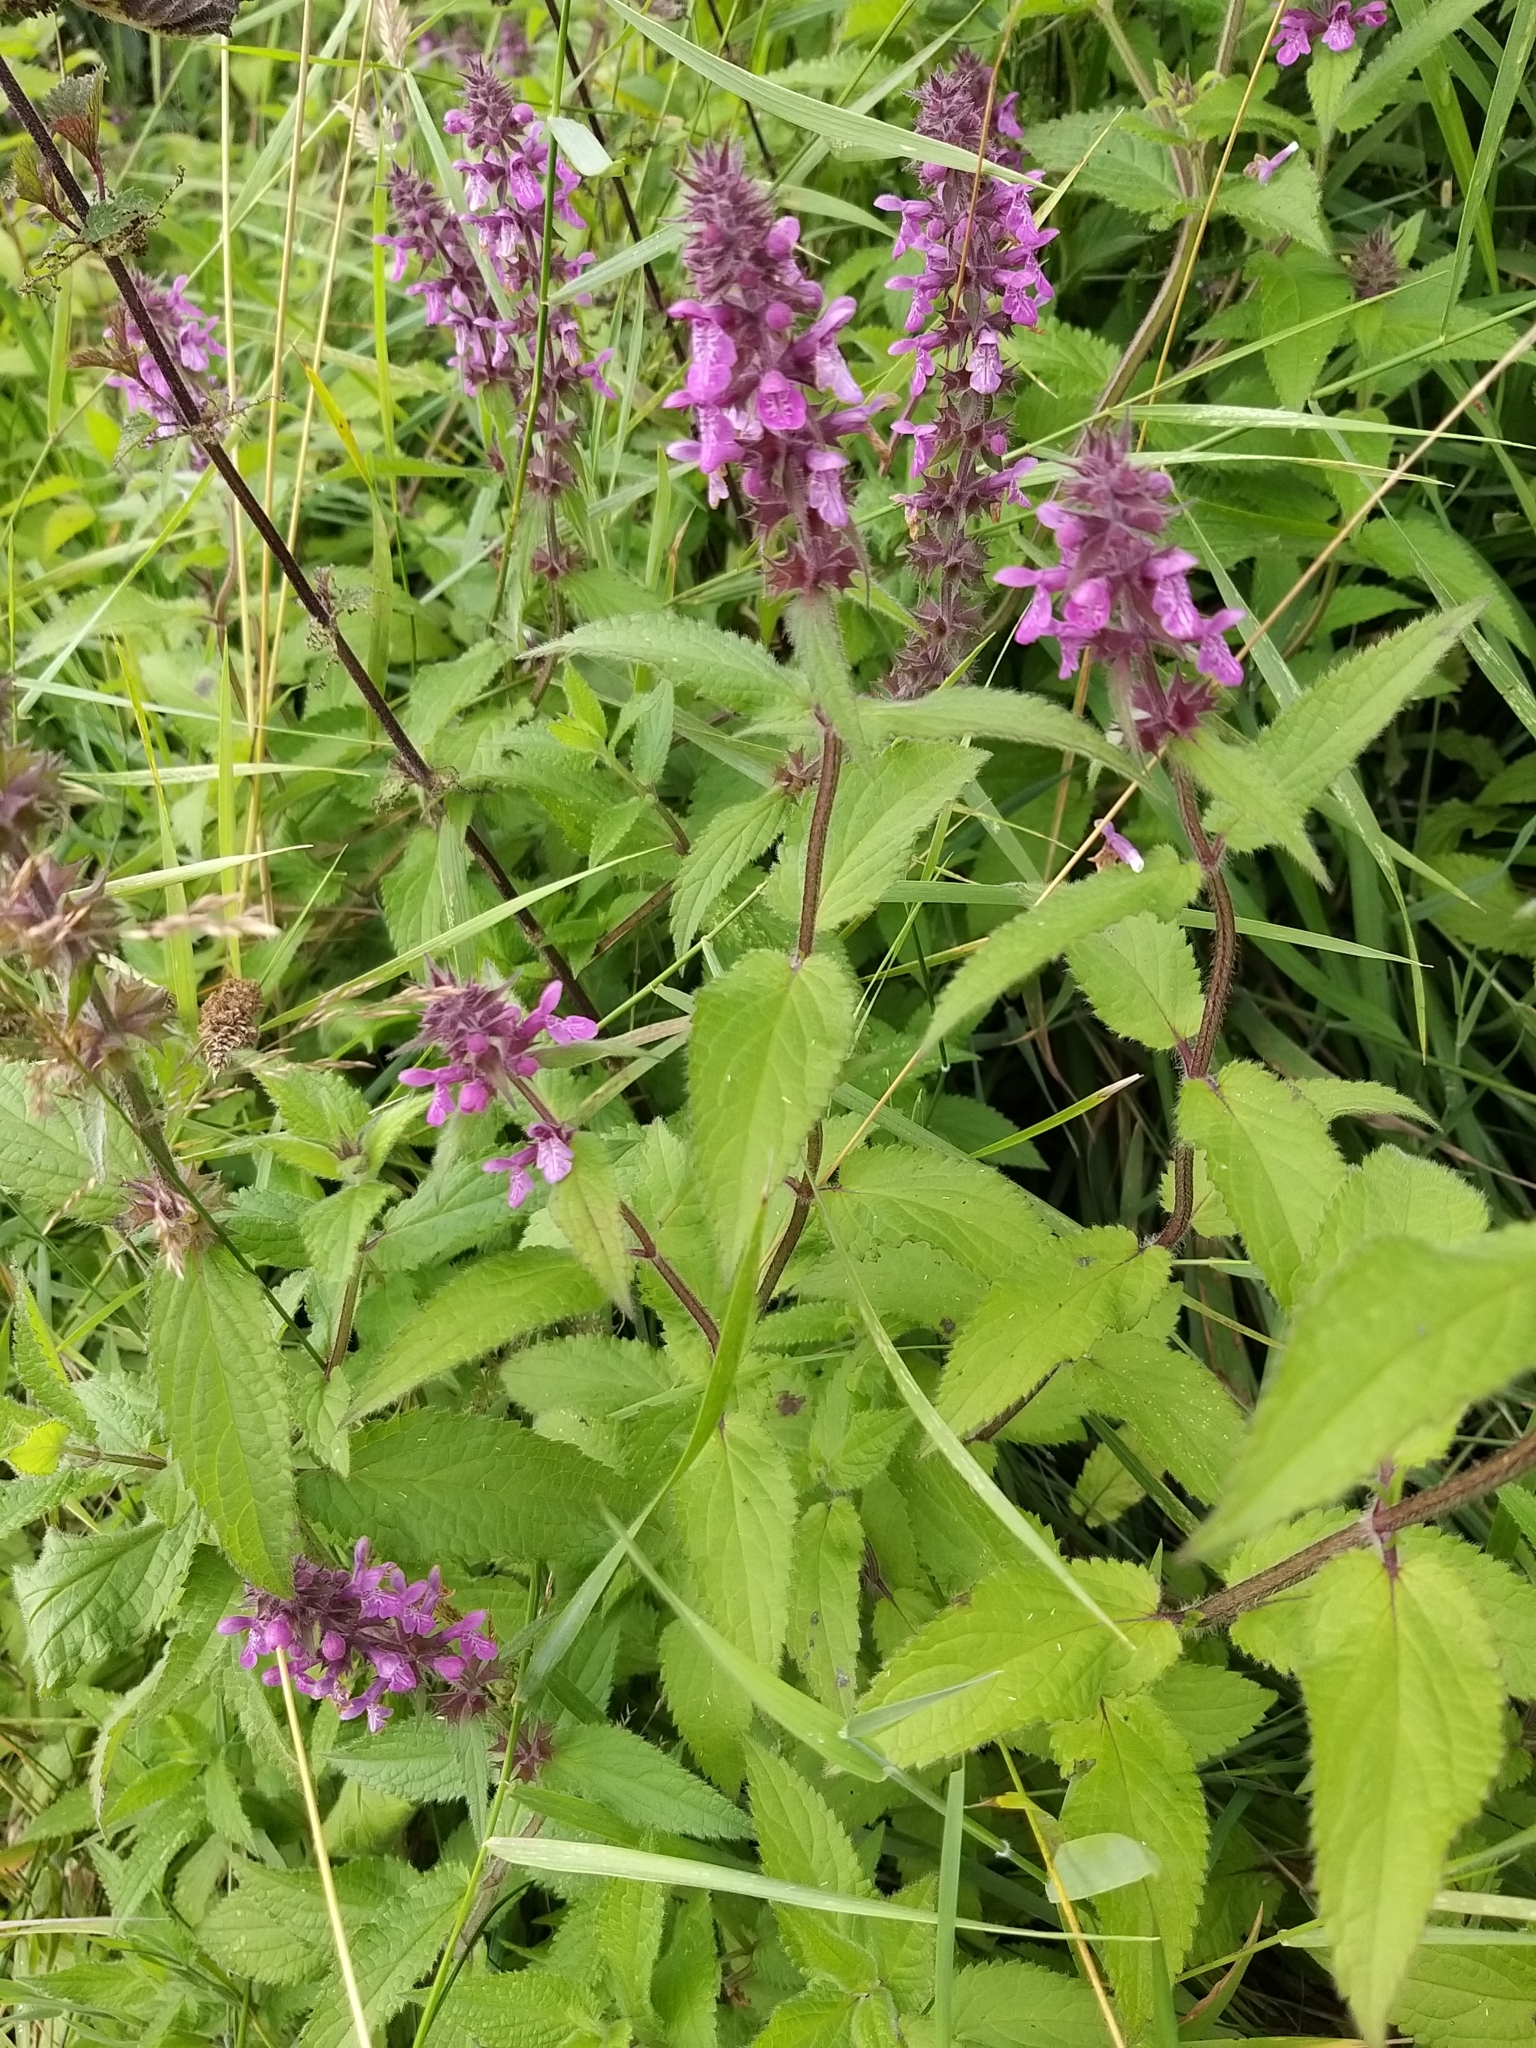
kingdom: Plantae
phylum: Tracheophyta
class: Magnoliopsida
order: Lamiales
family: Lamiaceae
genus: Stachys
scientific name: Stachys ambigua
